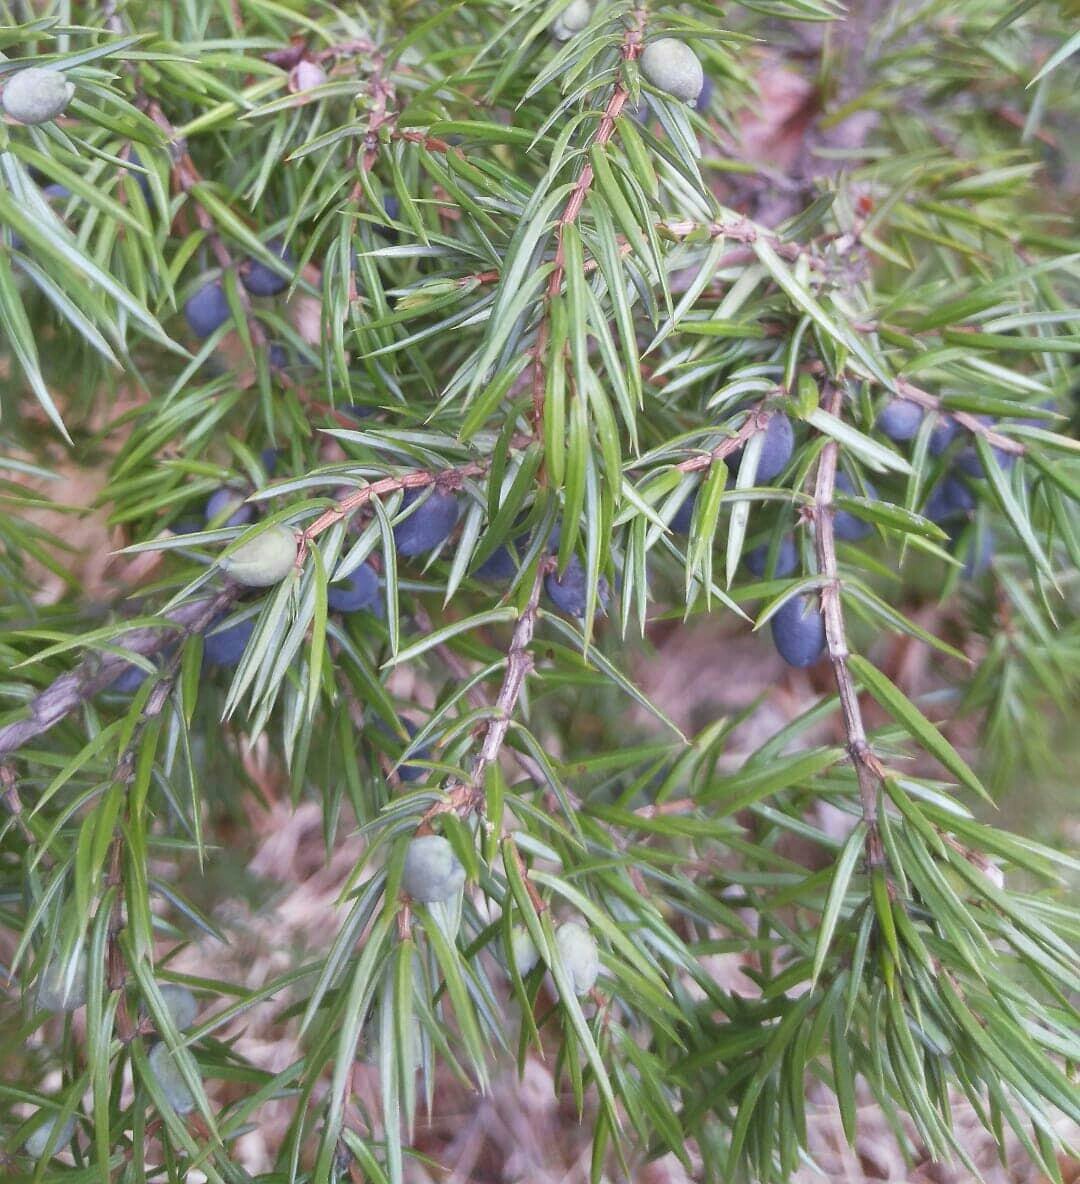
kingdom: Plantae
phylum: Tracheophyta
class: Pinopsida
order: Pinales
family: Cupressaceae
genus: Juniperus
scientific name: Juniperus communis
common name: Common juniper
